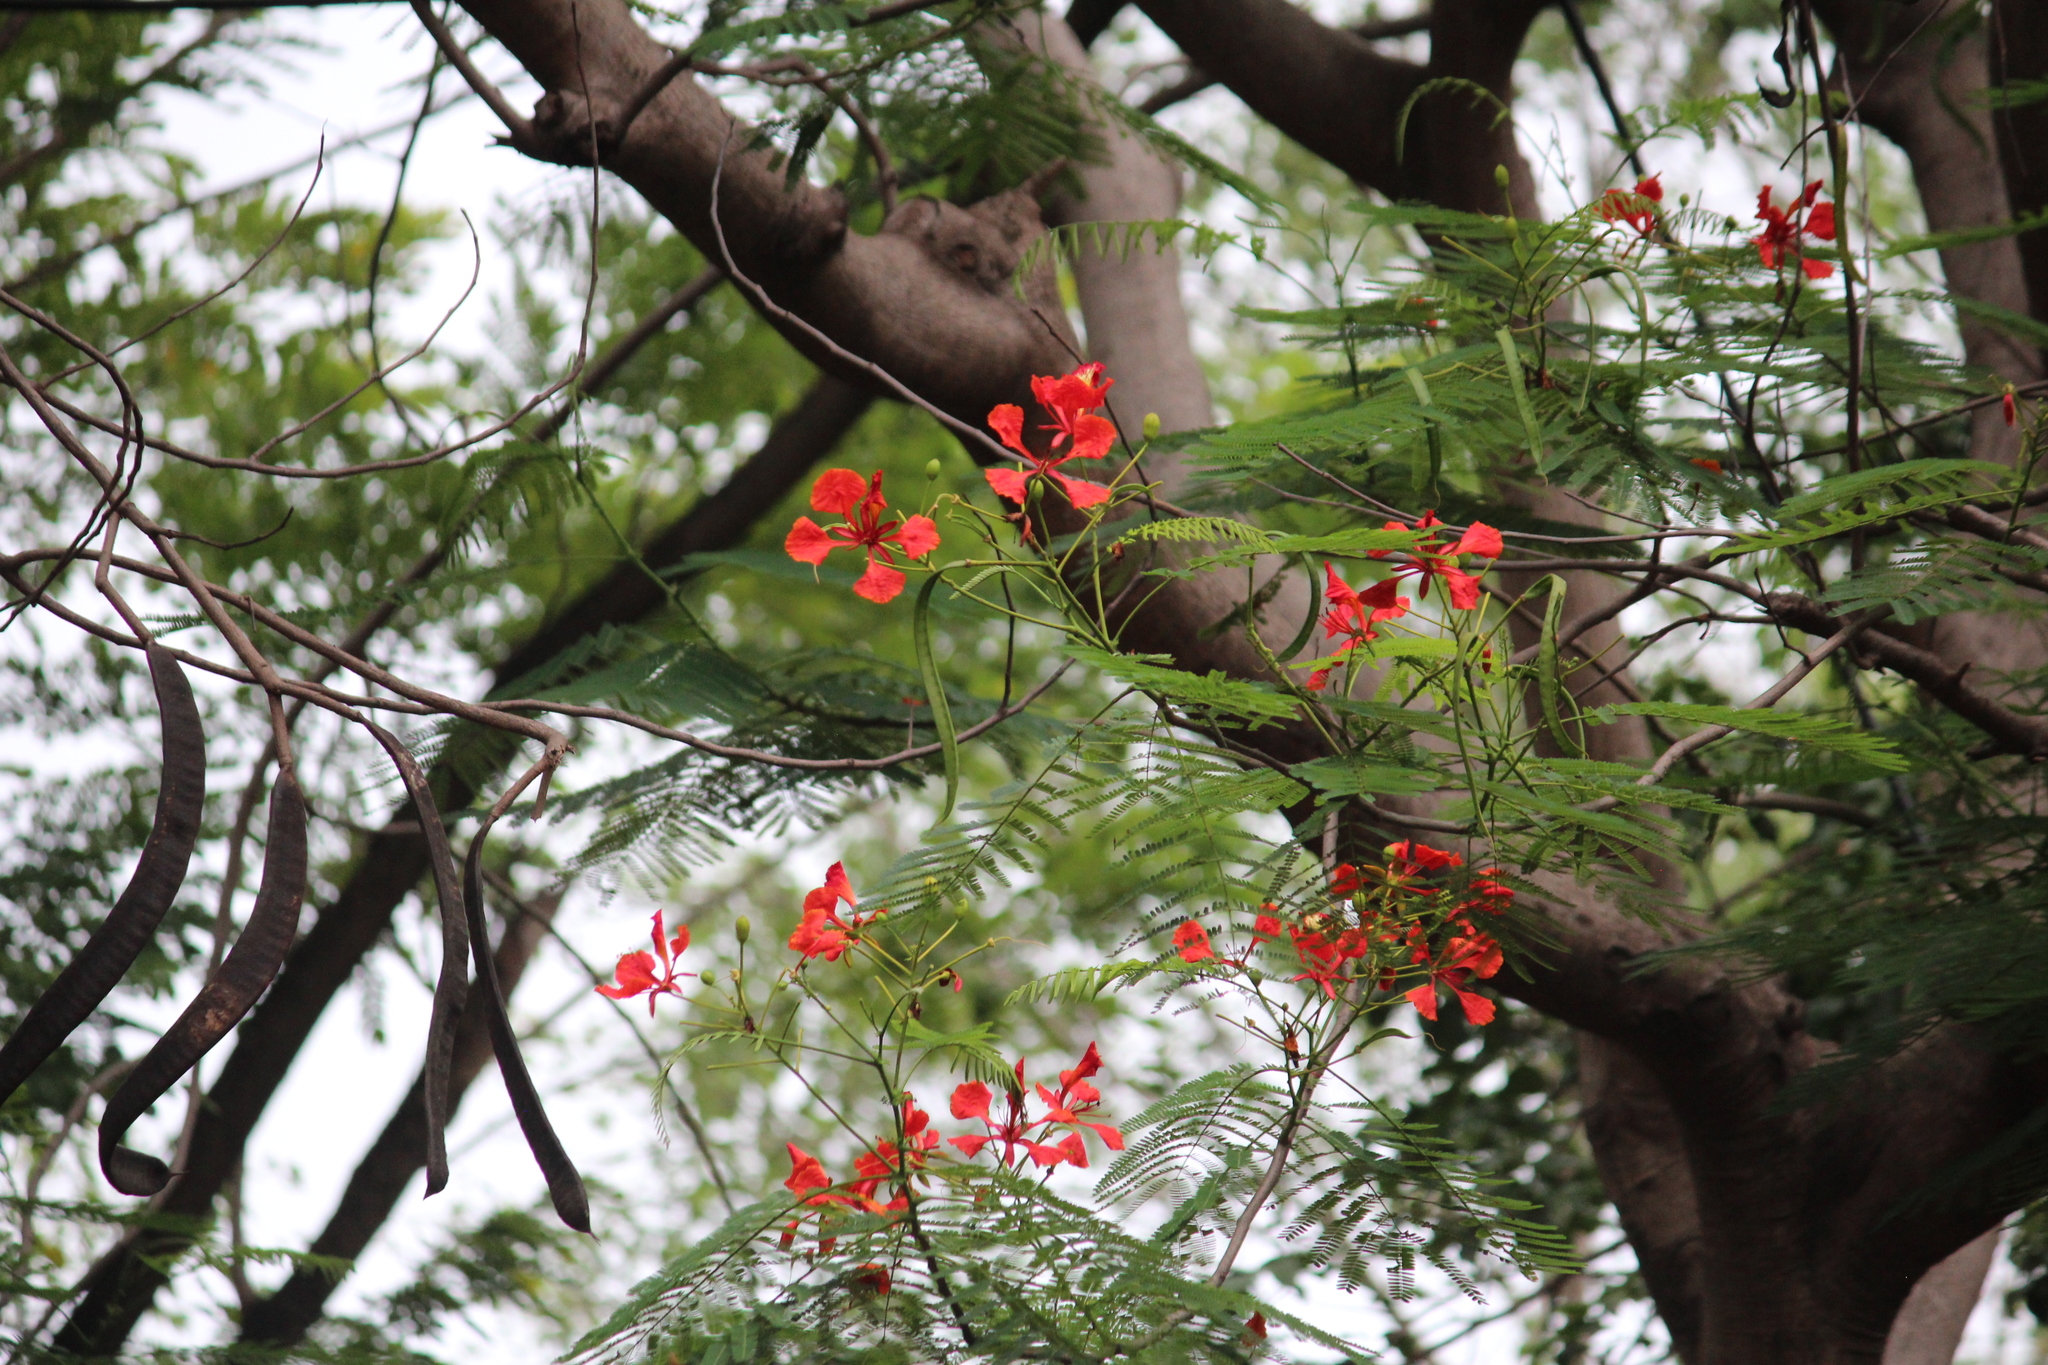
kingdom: Plantae
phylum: Tracheophyta
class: Magnoliopsida
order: Fabales
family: Fabaceae
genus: Delonix
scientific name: Delonix regia
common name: Royal poinciana
